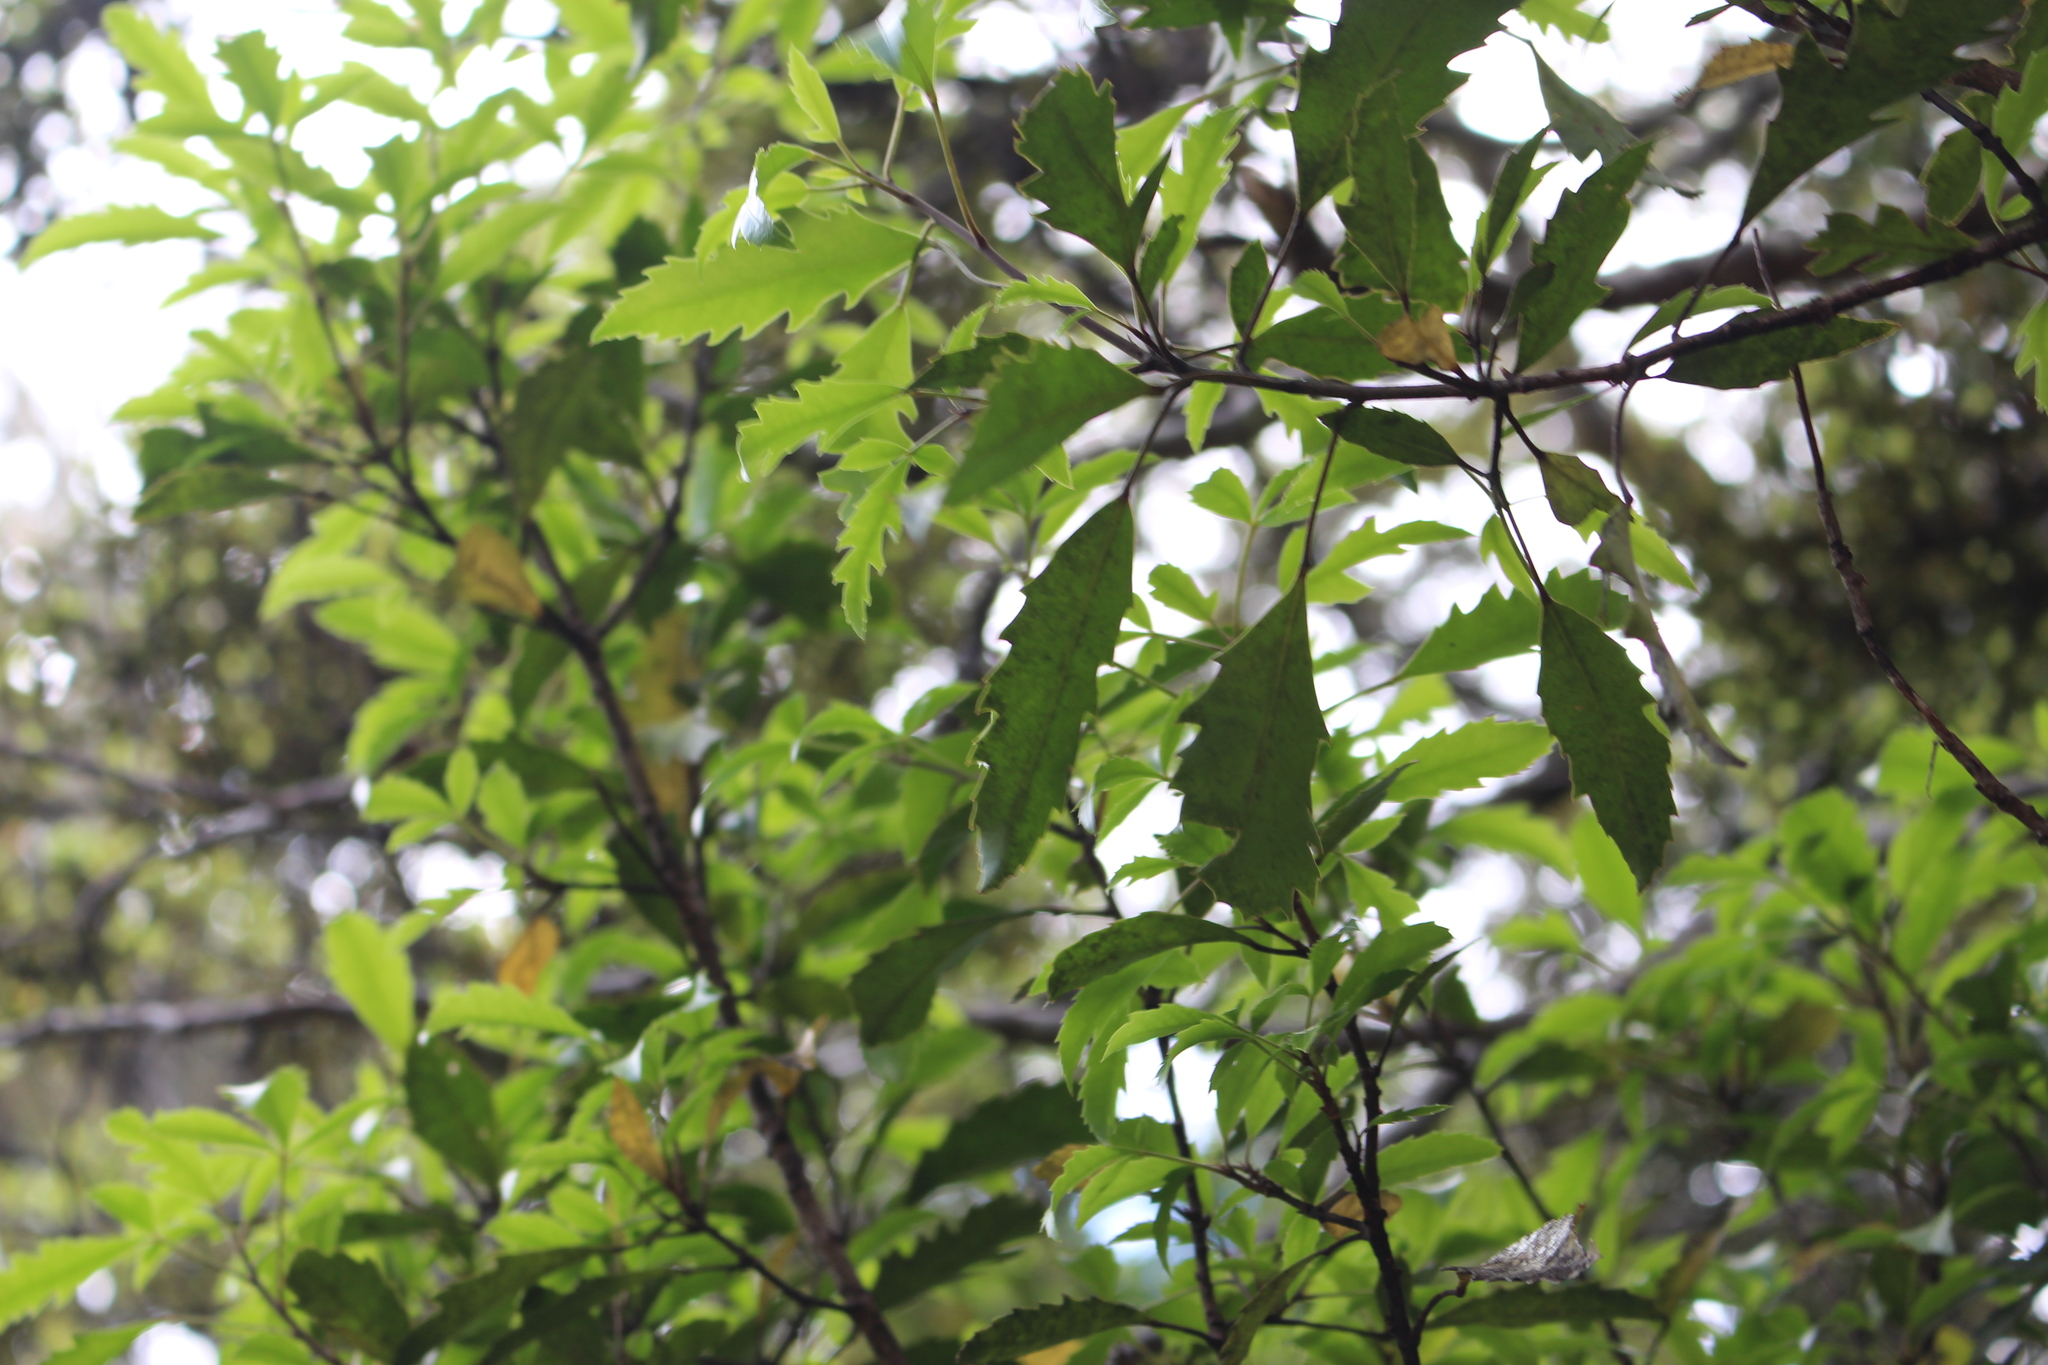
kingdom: Plantae
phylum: Tracheophyta
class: Magnoliopsida
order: Apiales
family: Araliaceae
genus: Raukaua
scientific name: Raukaua simplex
